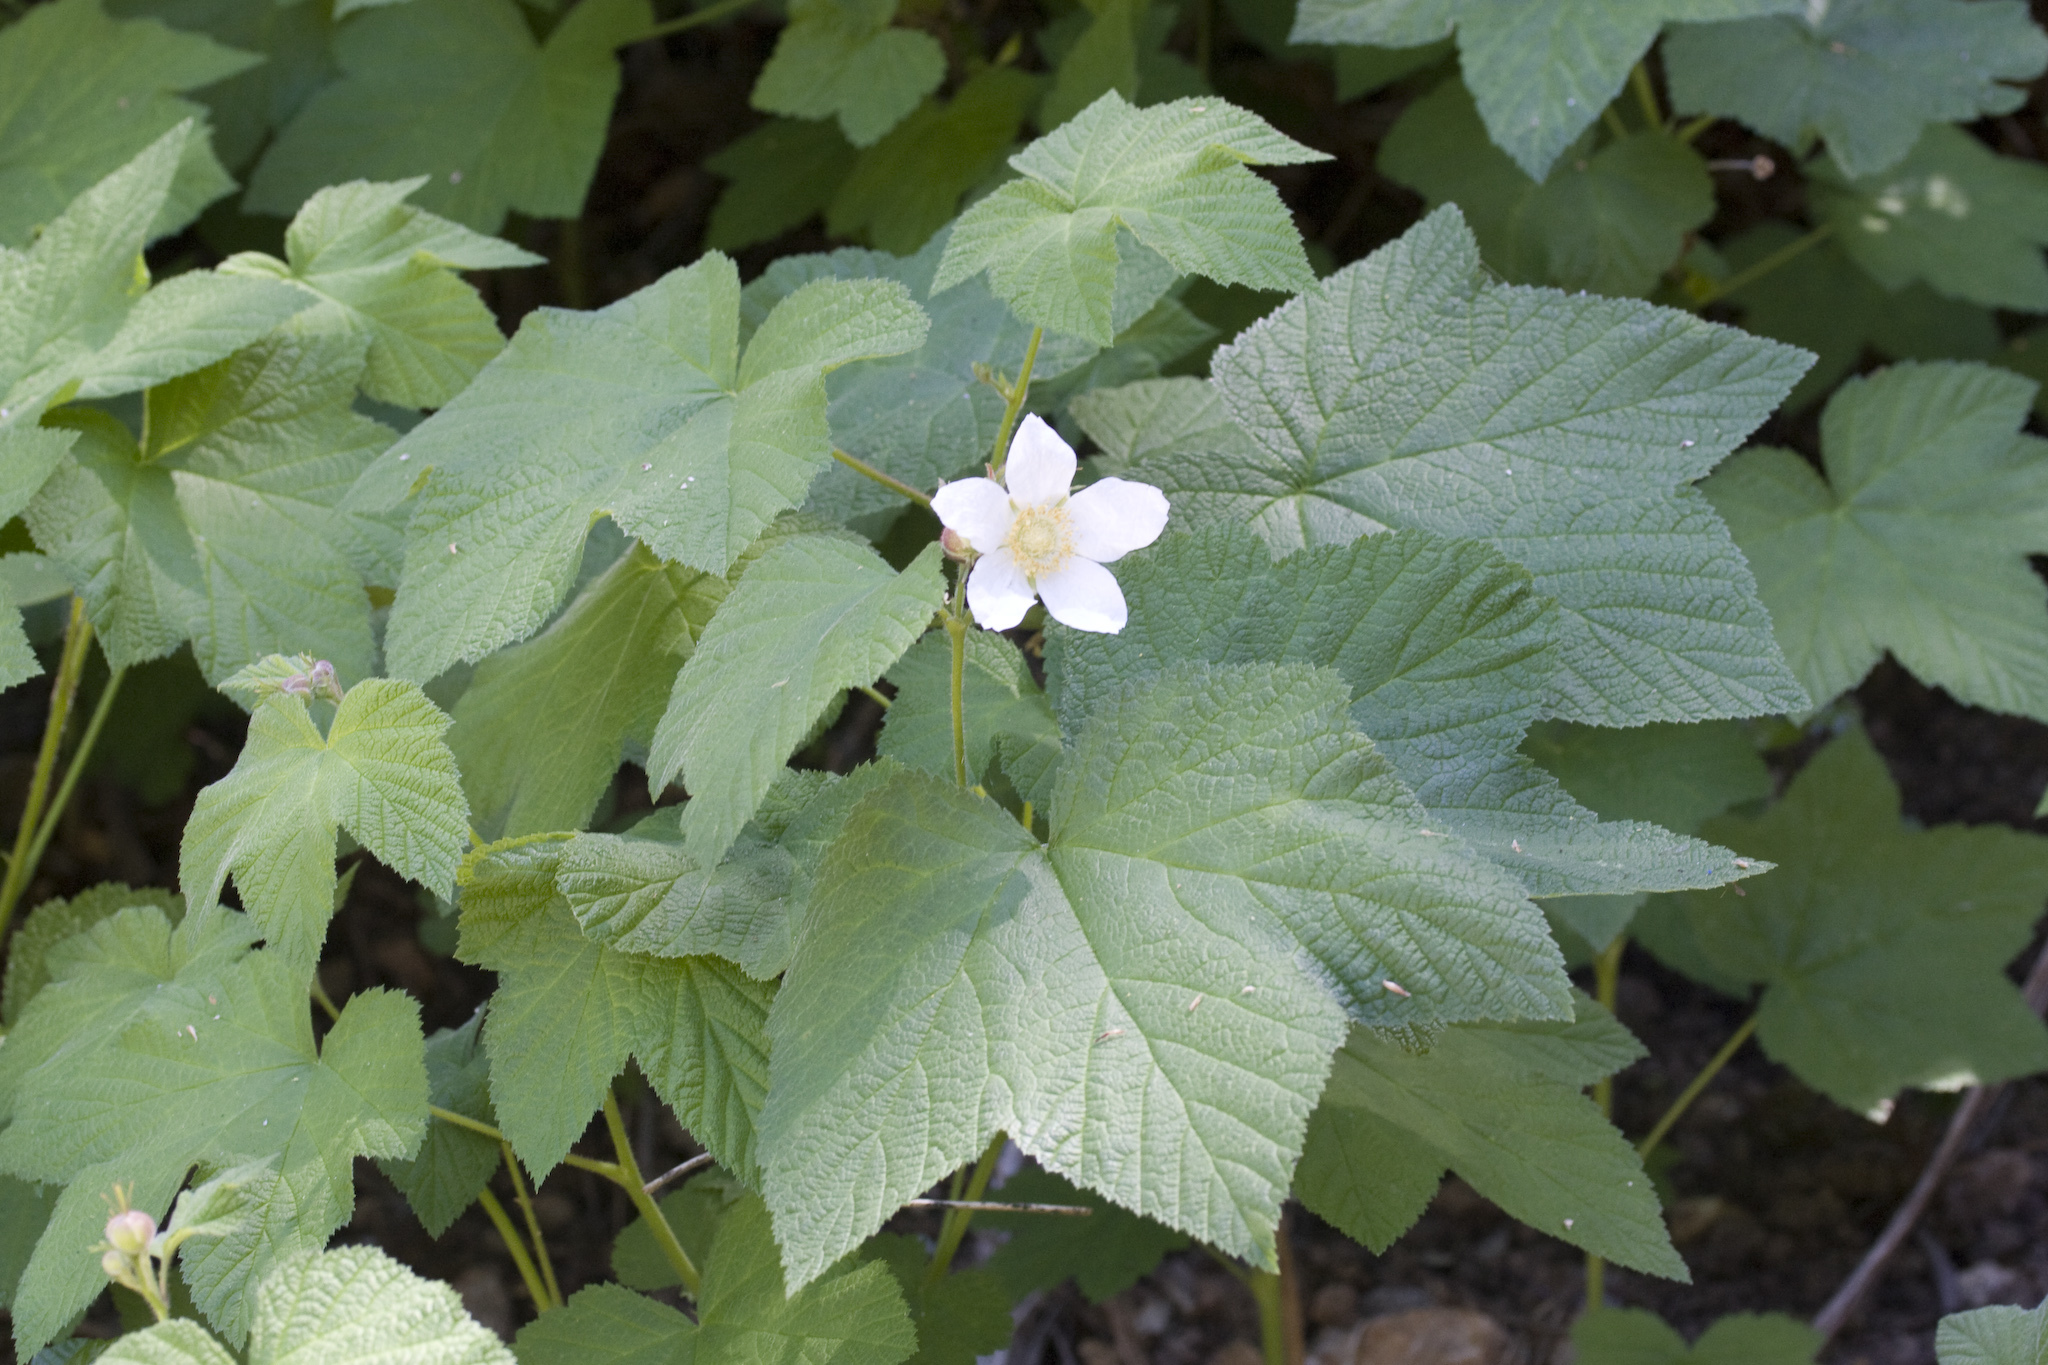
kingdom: Plantae
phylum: Tracheophyta
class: Magnoliopsida
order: Rosales
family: Rosaceae
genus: Rubus
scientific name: Rubus parviflorus
